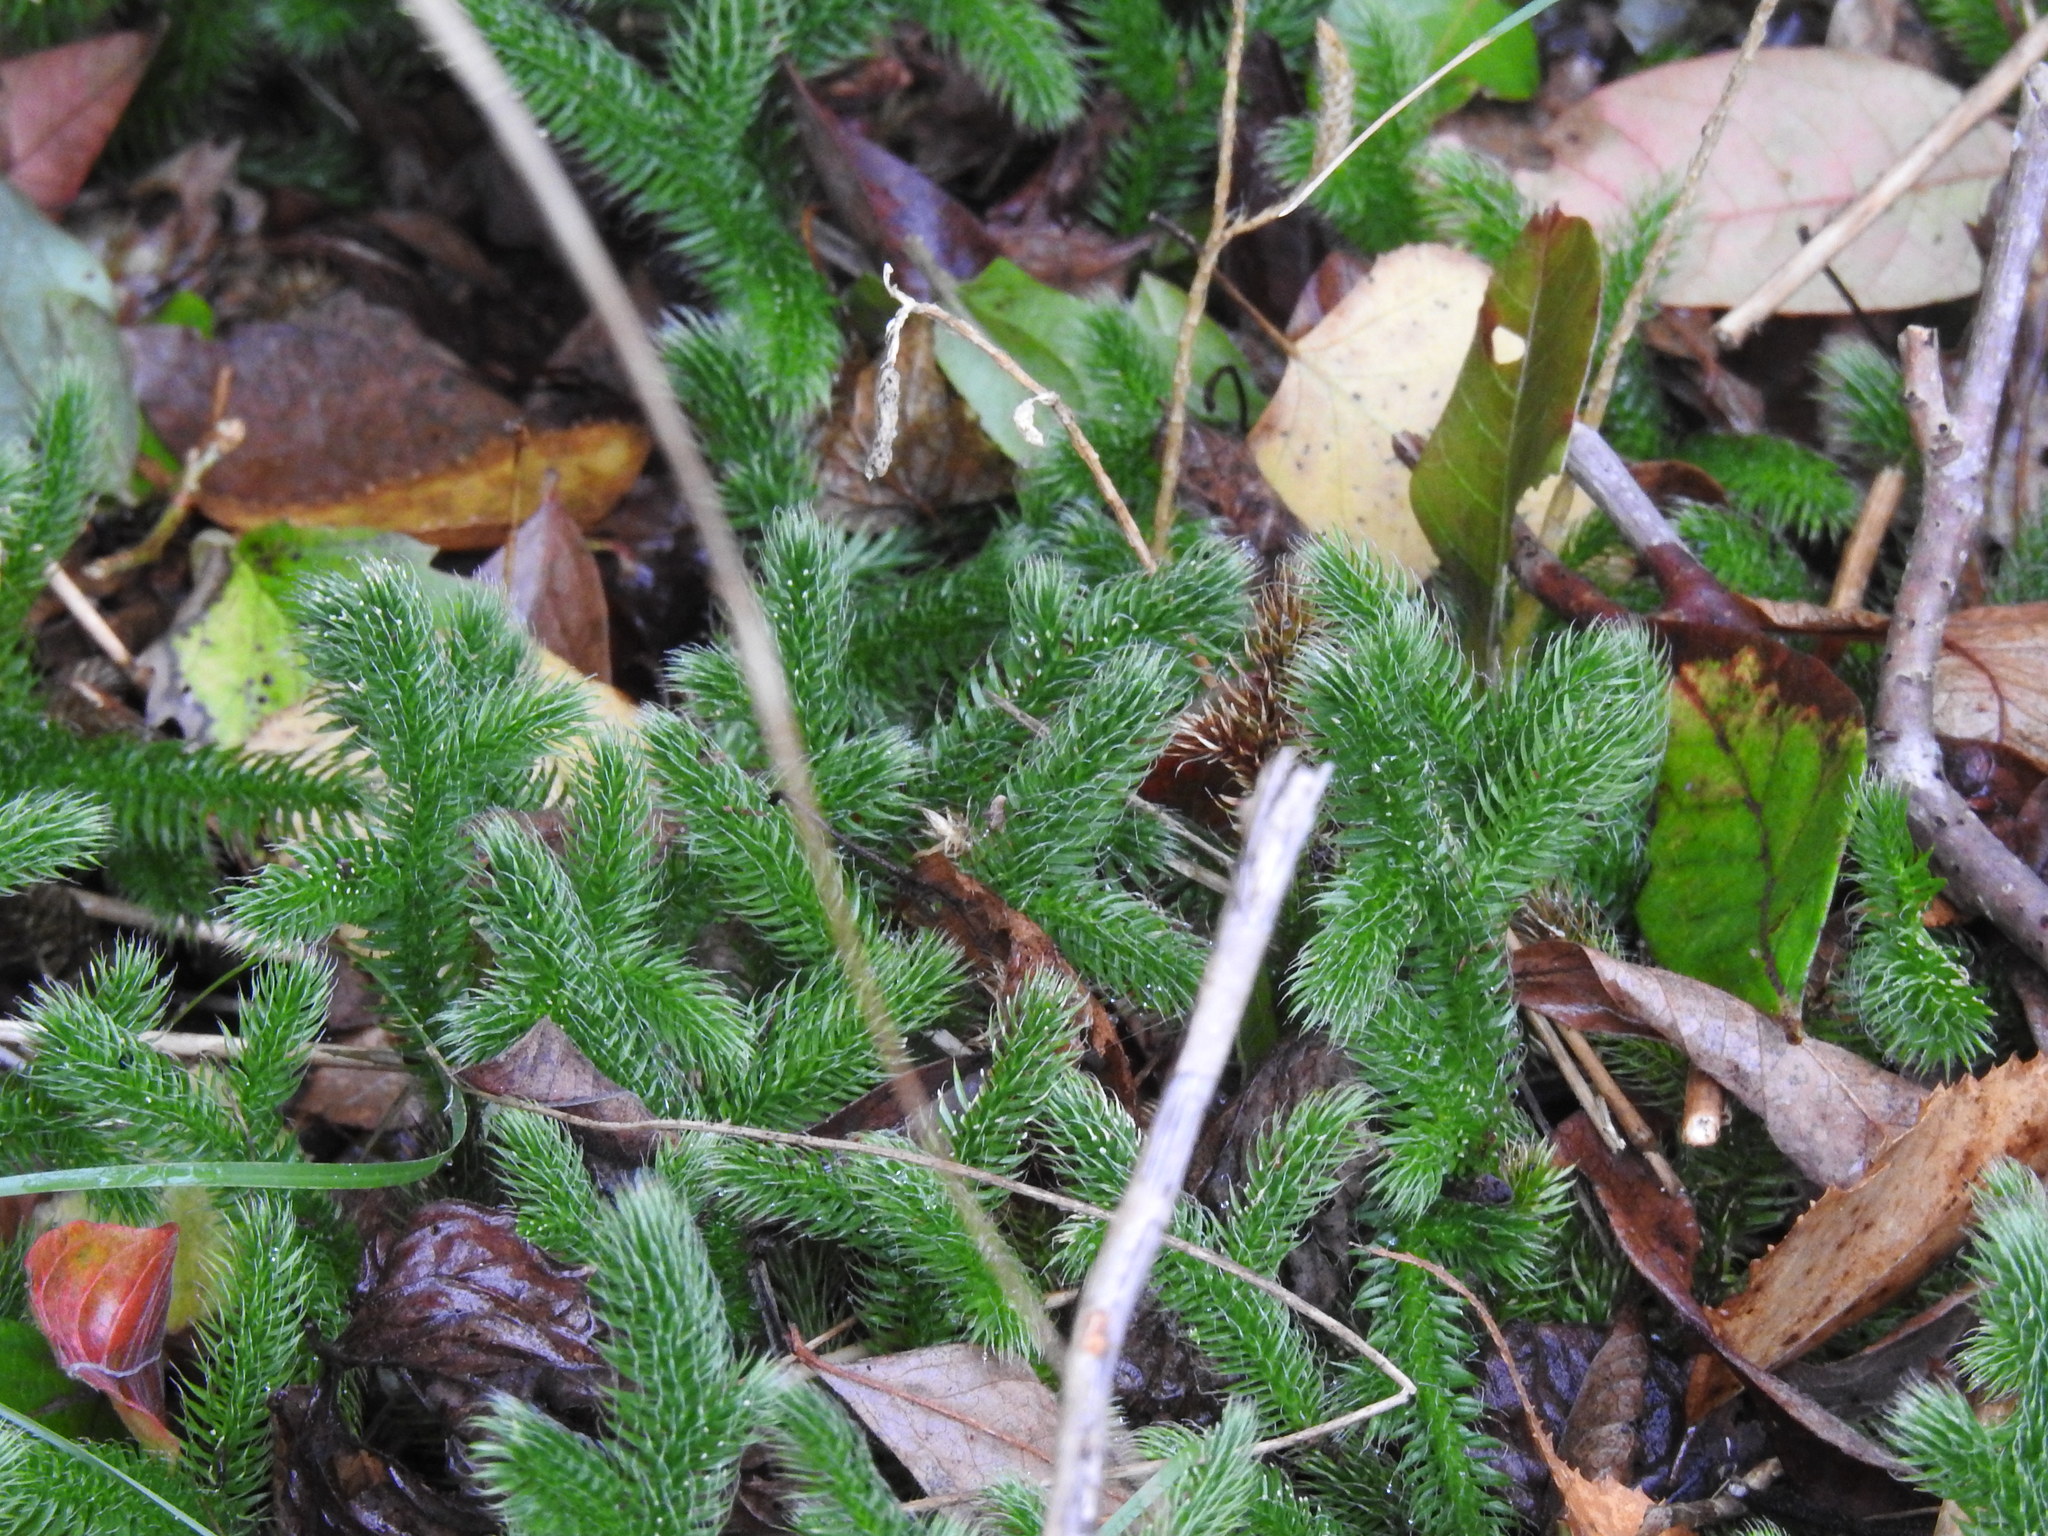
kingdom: Plantae
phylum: Tracheophyta
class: Lycopodiopsida
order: Lycopodiales
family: Lycopodiaceae
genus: Lycopodium
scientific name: Lycopodium clavatum
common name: Stag's-horn clubmoss
